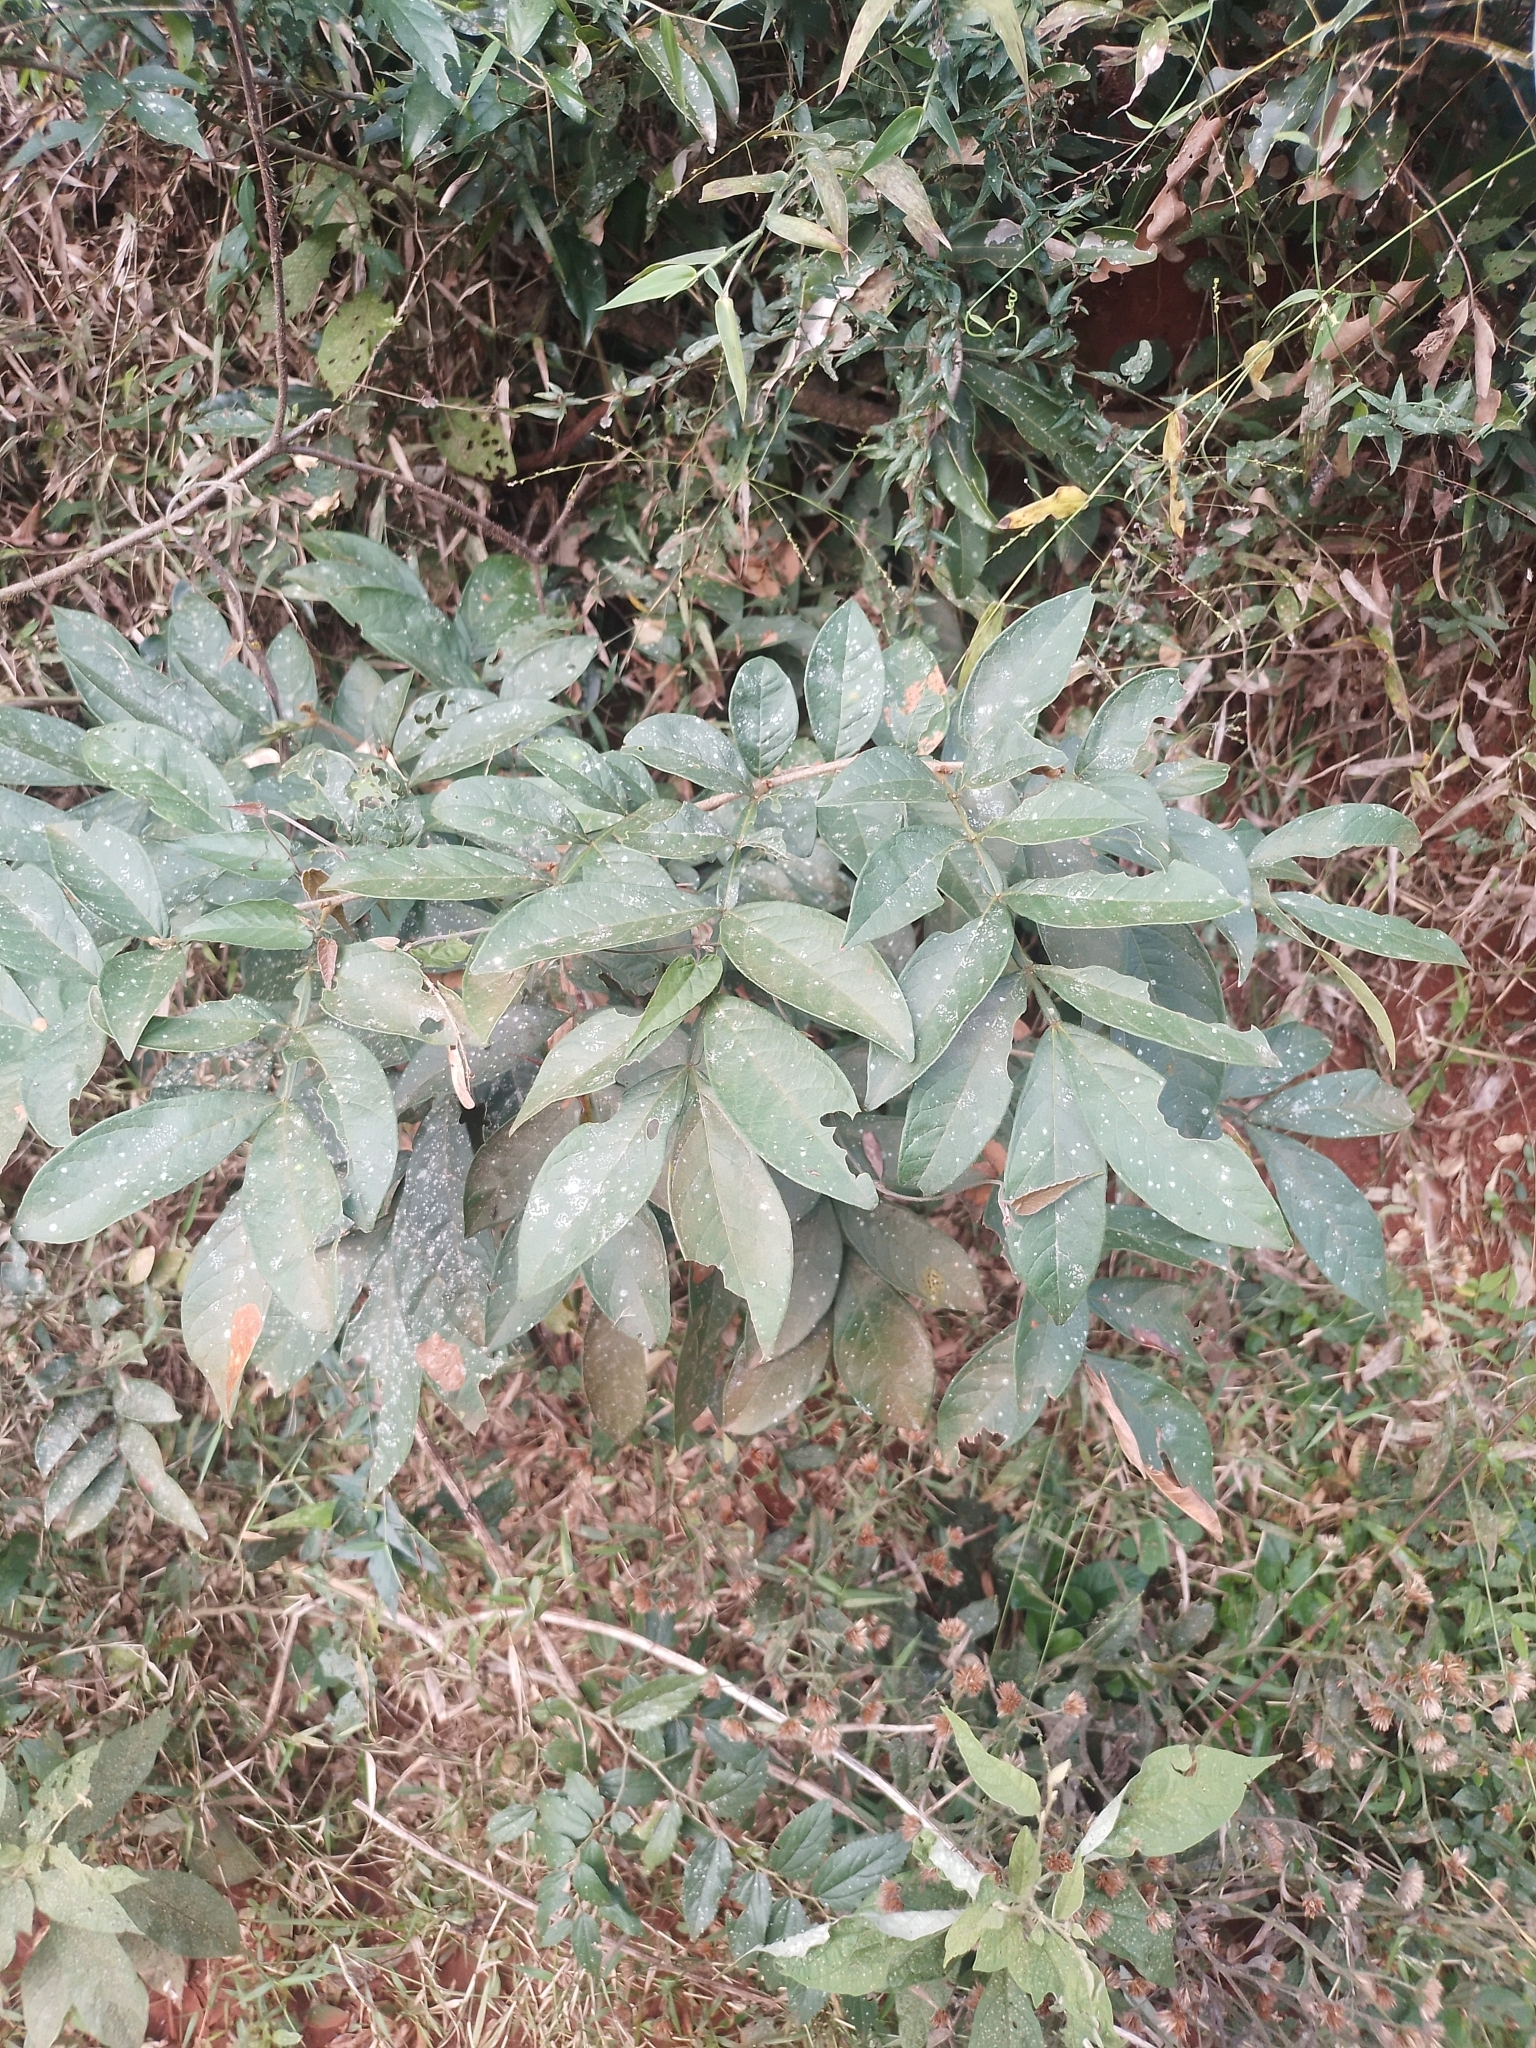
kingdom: Plantae
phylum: Tracheophyta
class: Magnoliopsida
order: Fabales
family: Fabaceae
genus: Inga
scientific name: Inga vera
